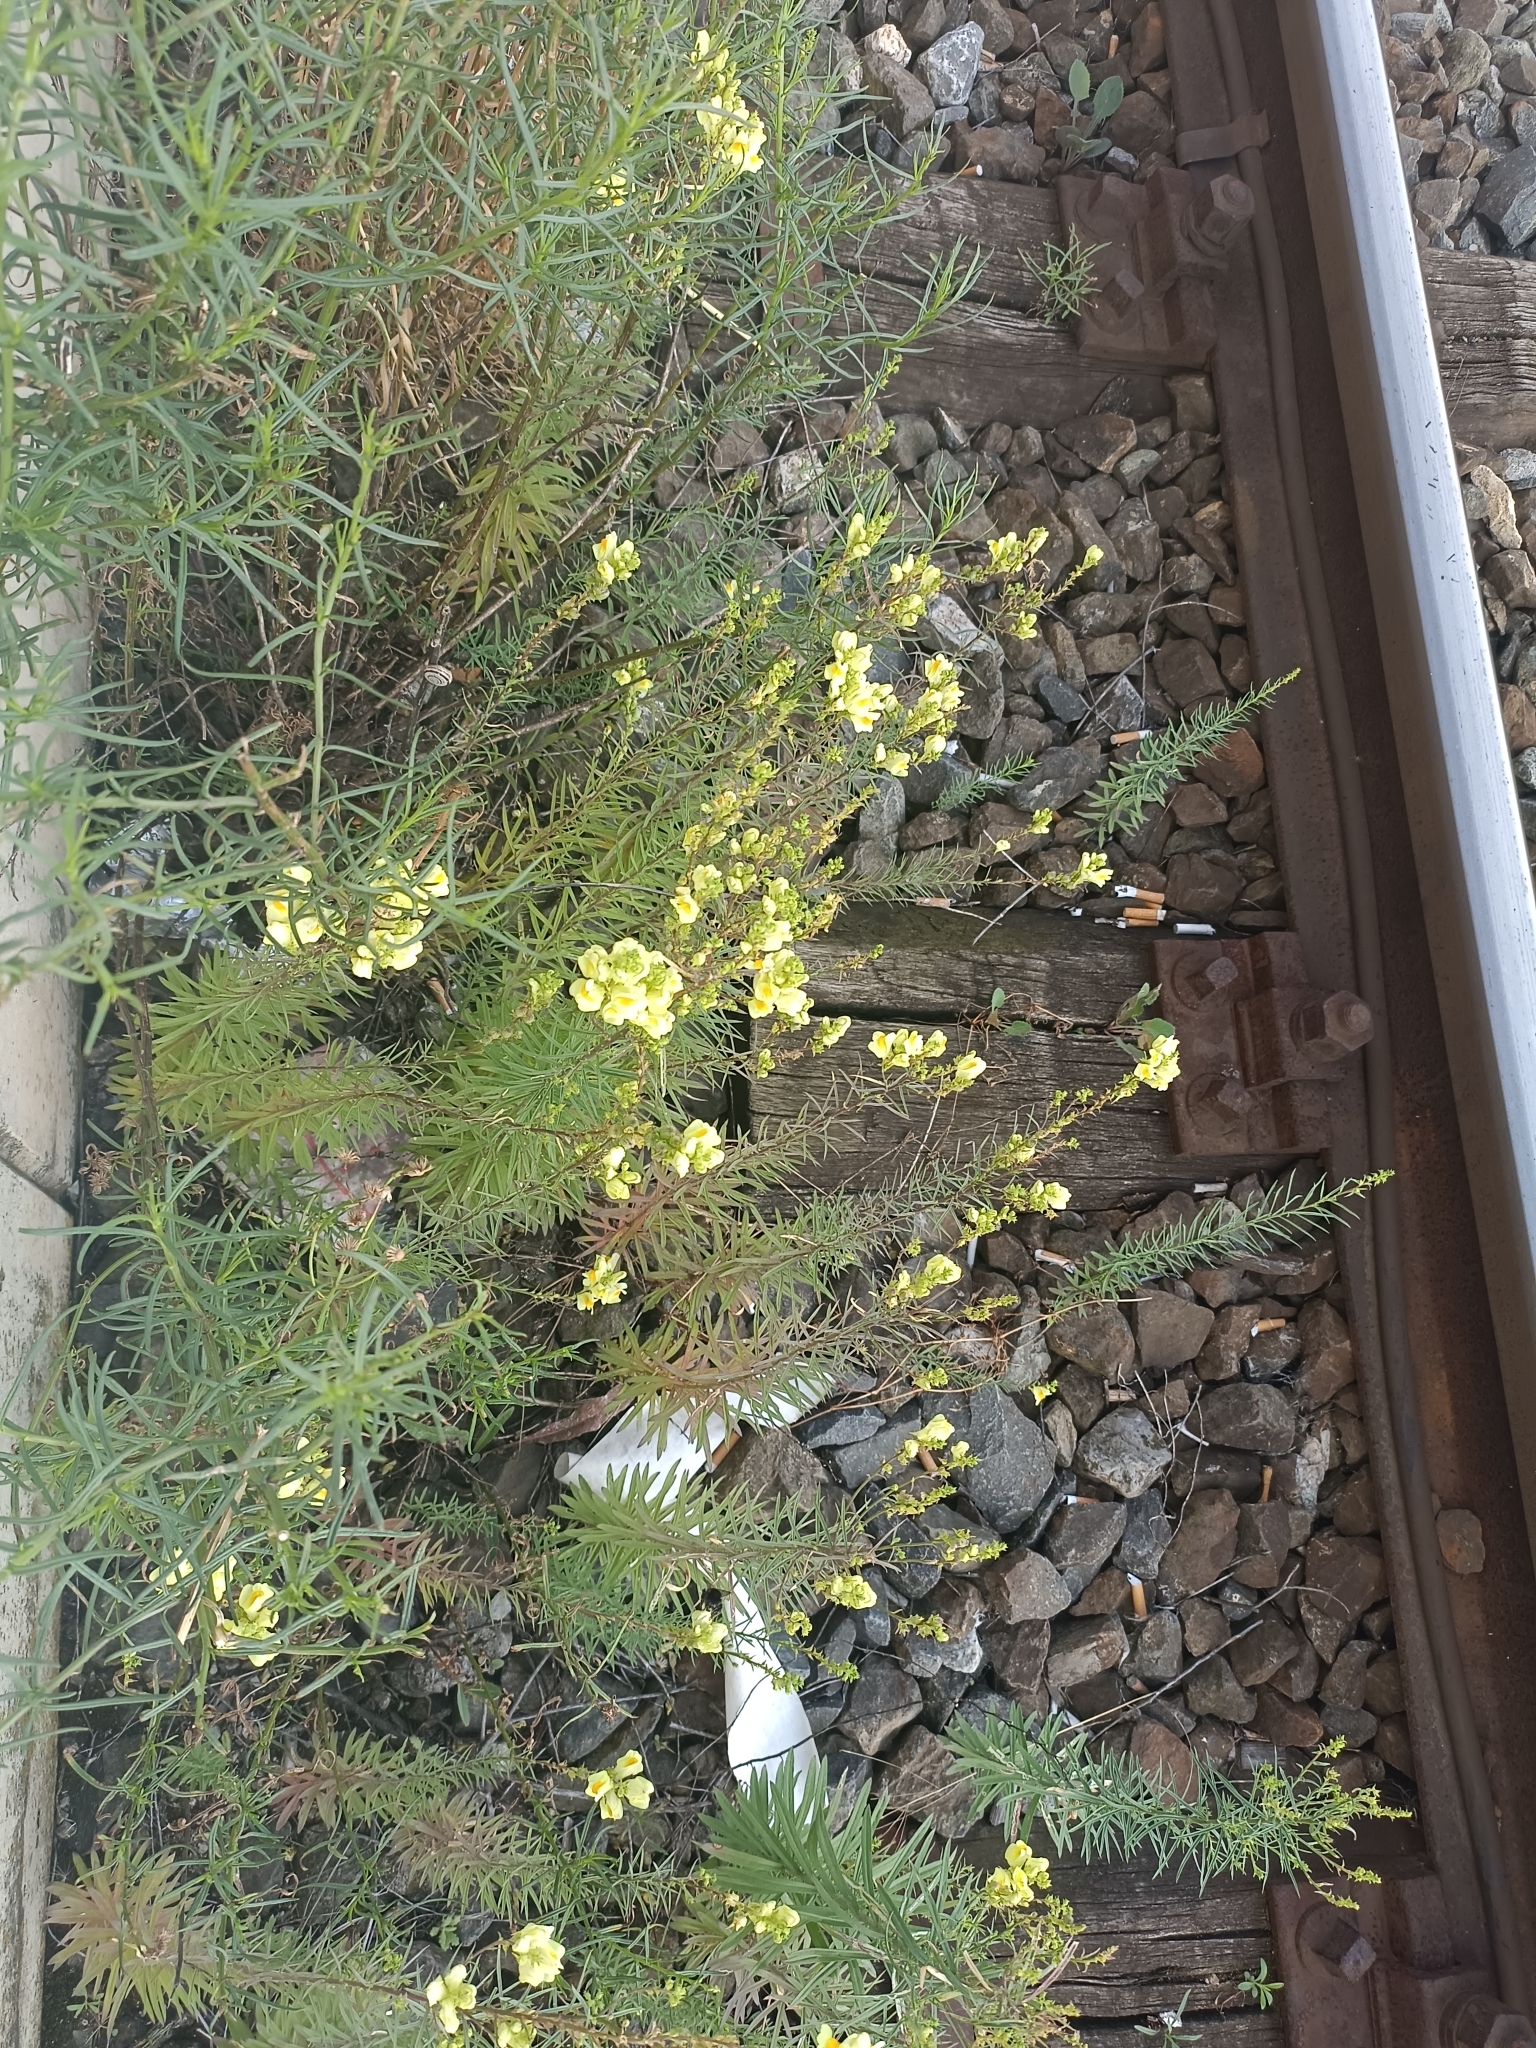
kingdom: Plantae
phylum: Tracheophyta
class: Magnoliopsida
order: Lamiales
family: Plantaginaceae
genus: Linaria
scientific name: Linaria vulgaris
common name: Butter and eggs
